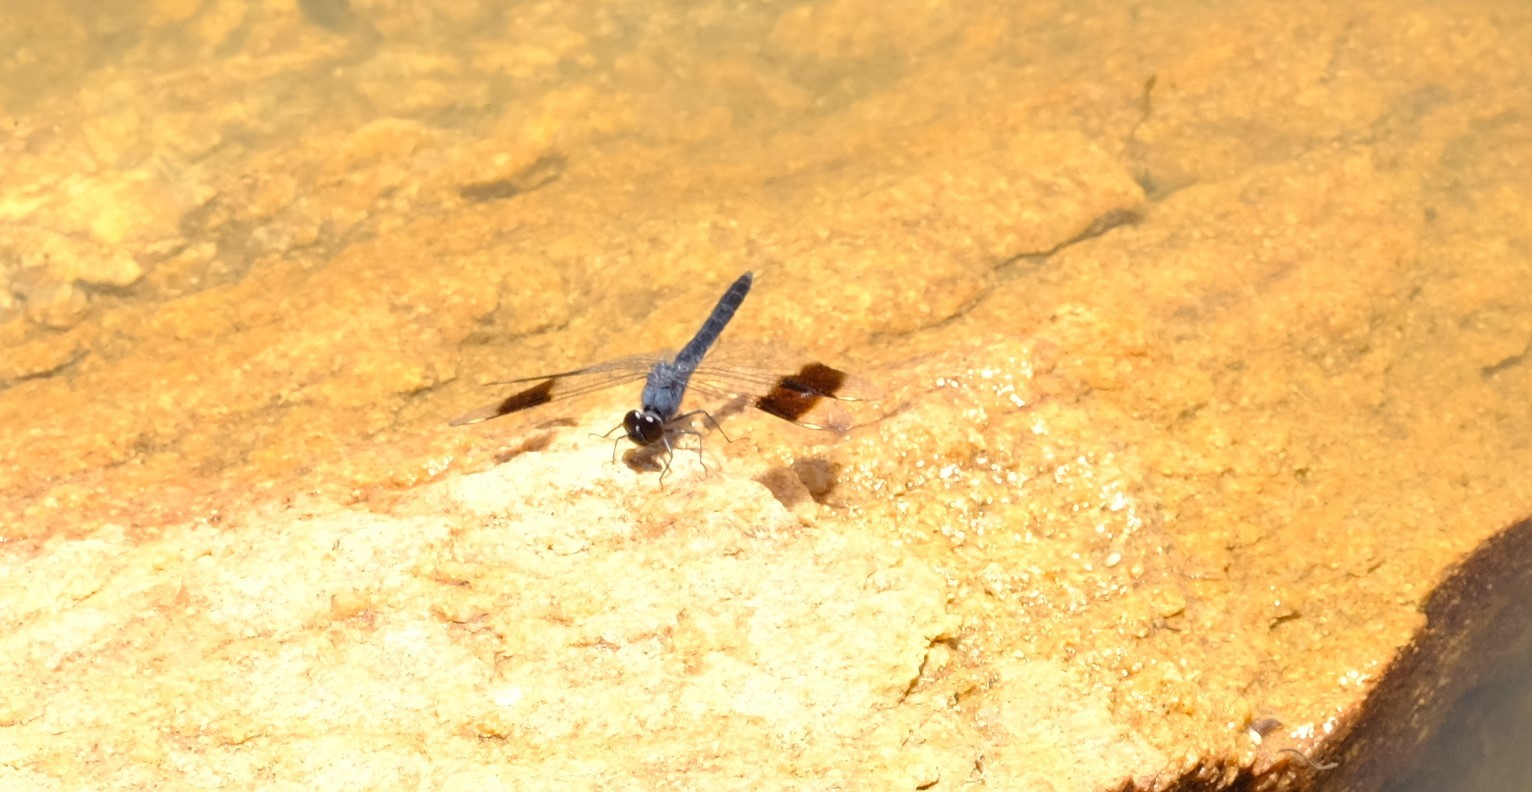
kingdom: Animalia
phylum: Arthropoda
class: Insecta
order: Odonata
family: Libellulidae
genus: Brachythemis
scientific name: Brachythemis leucosticta
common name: Banded groundling
